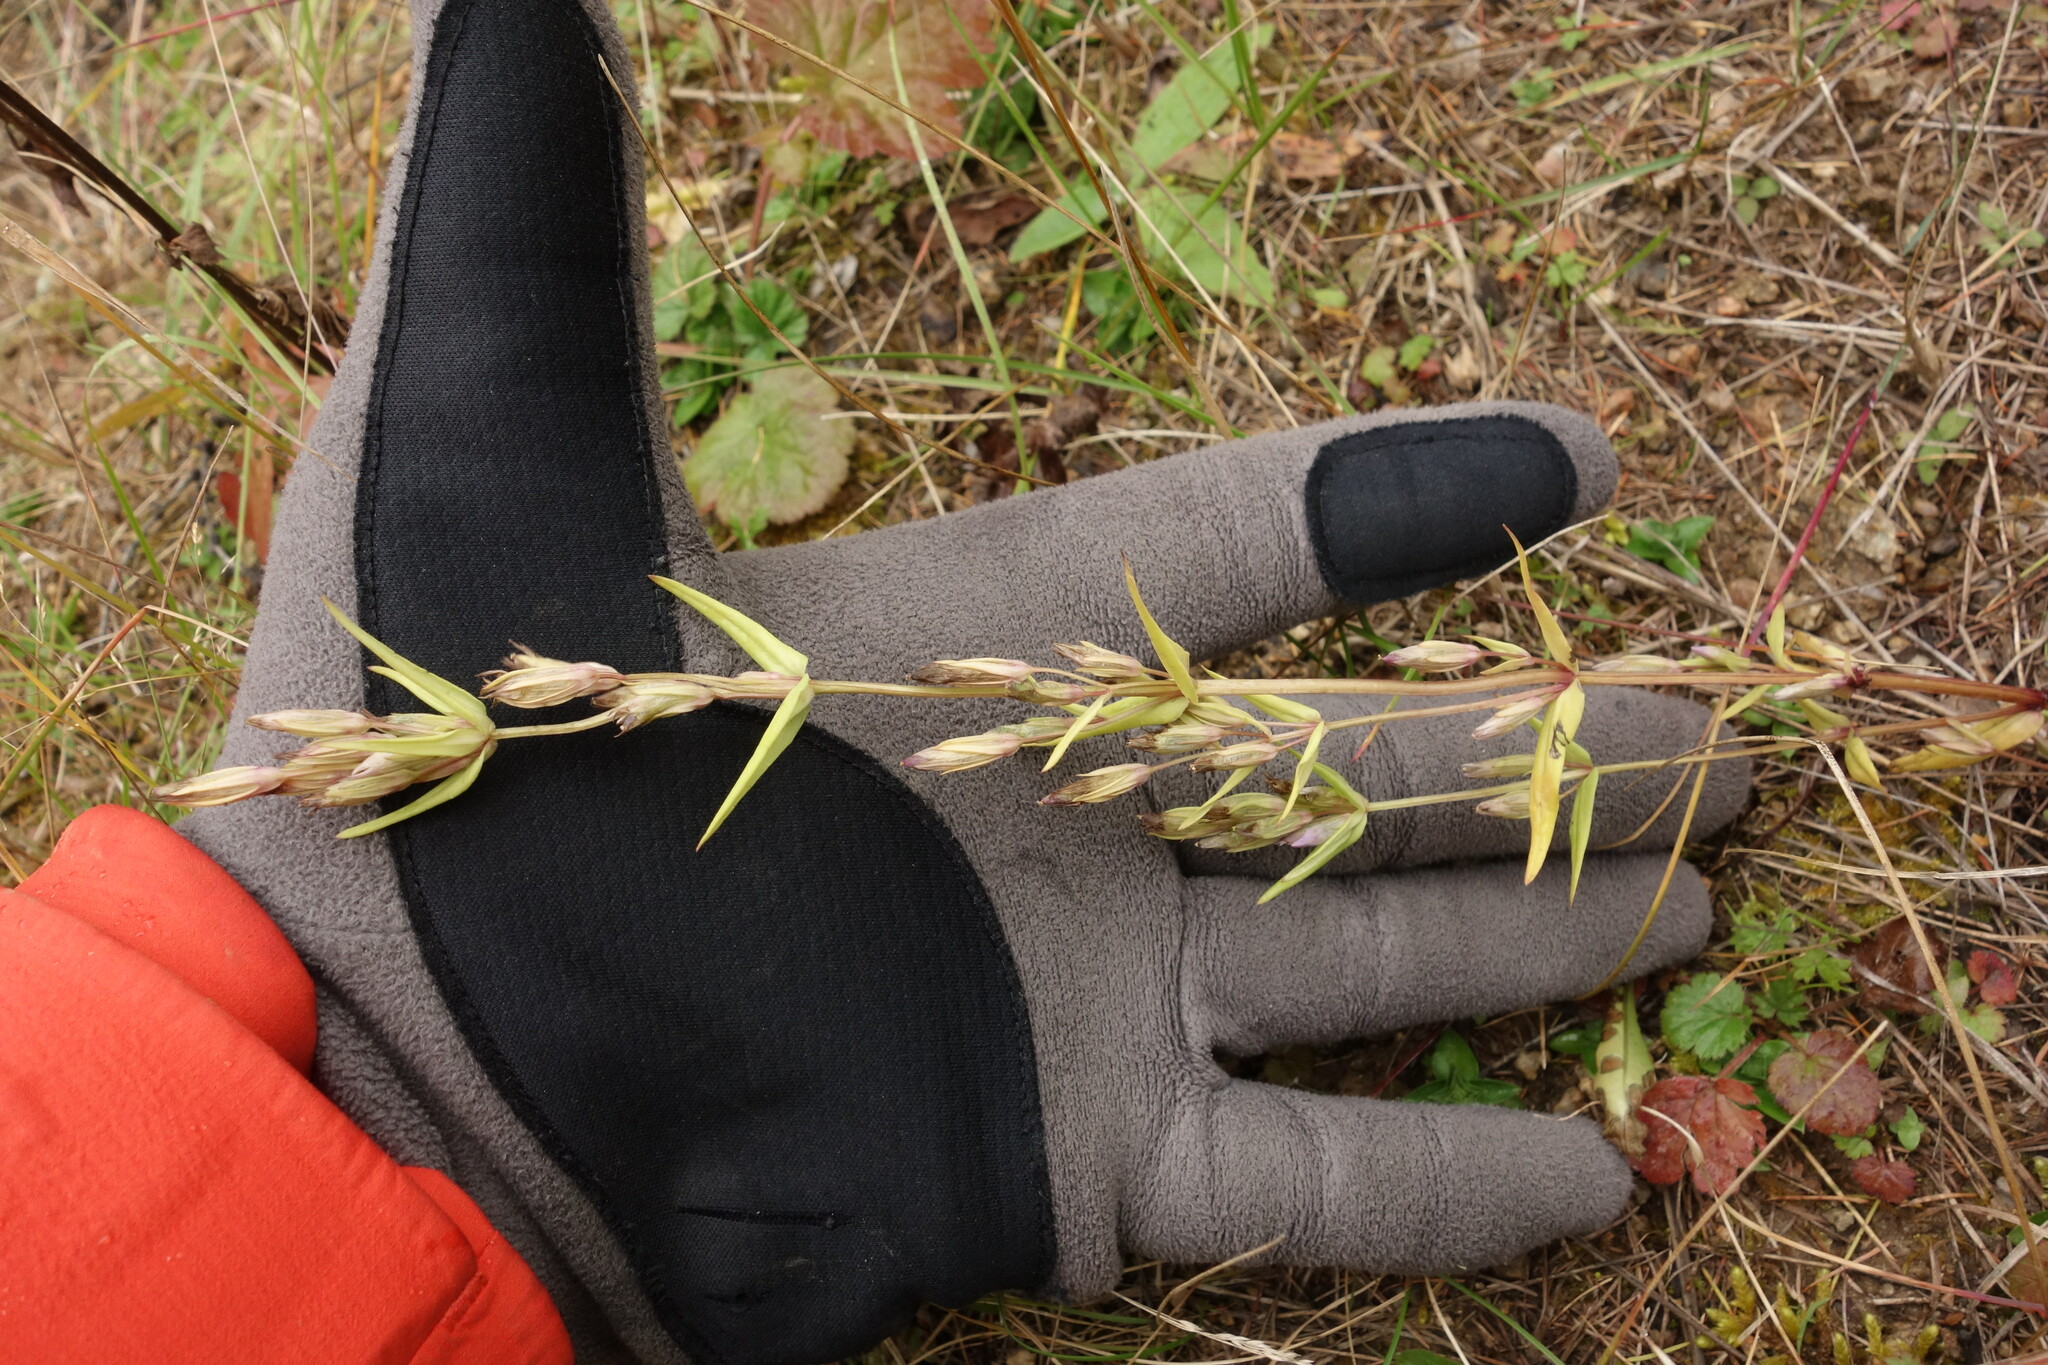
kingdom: Plantae
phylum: Tracheophyta
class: Magnoliopsida
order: Gentianales
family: Gentianaceae
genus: Gentianella
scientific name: Gentianella amarella
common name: Autumn gentian
